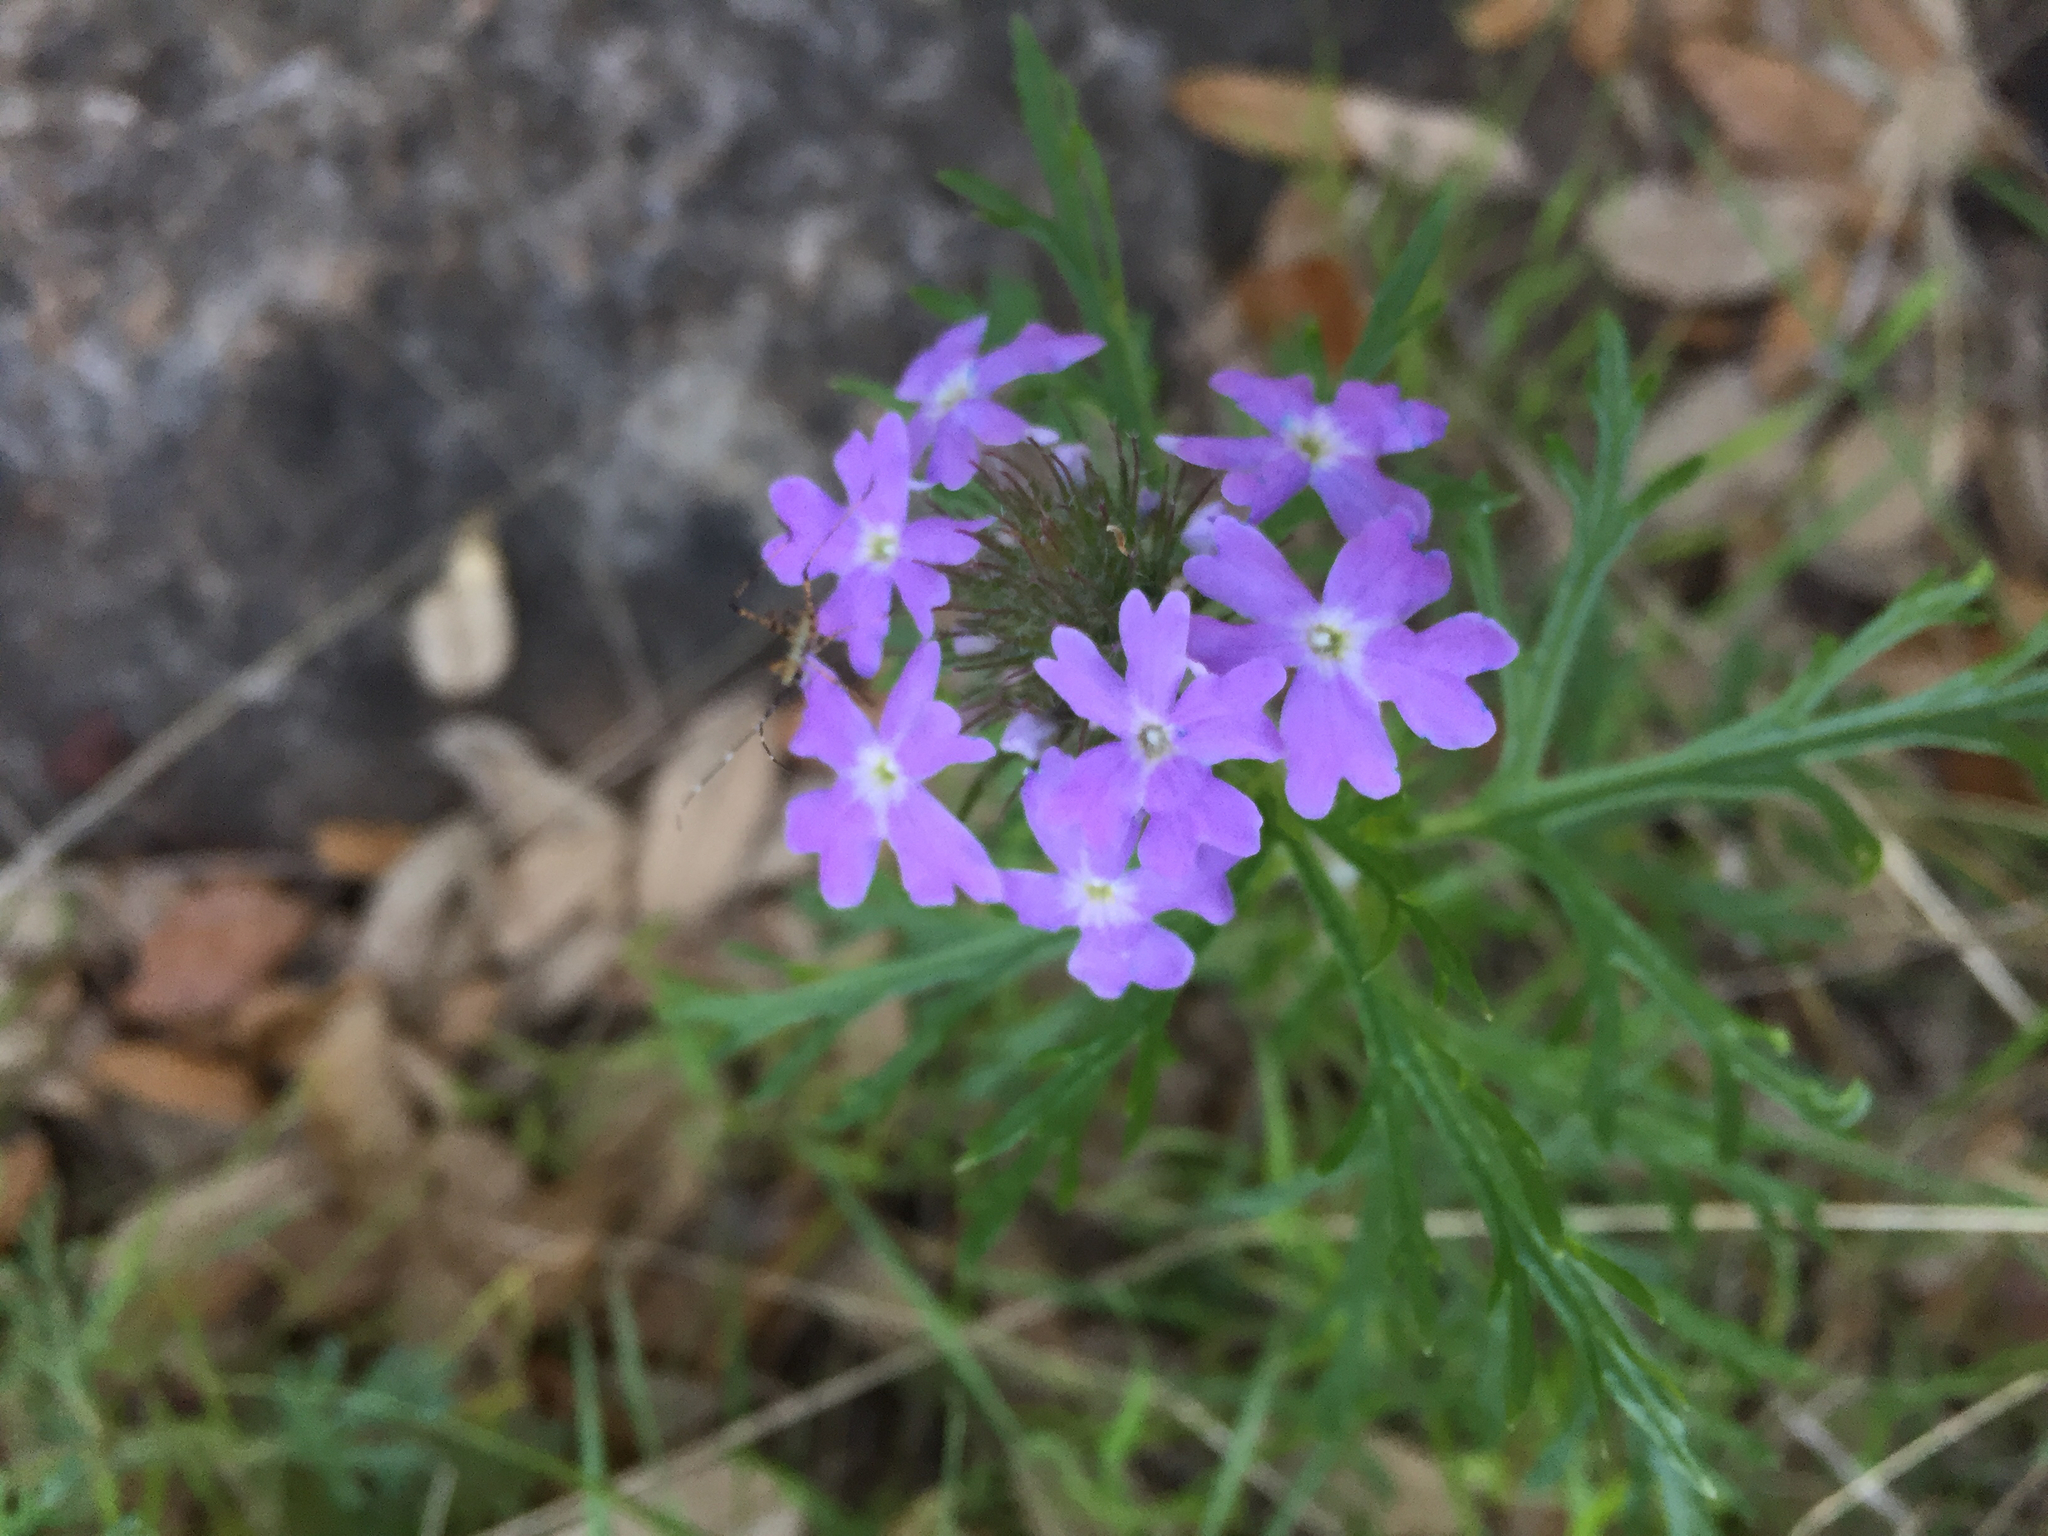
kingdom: Plantae
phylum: Tracheophyta
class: Magnoliopsida
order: Lamiales
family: Verbenaceae
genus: Verbena
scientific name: Verbena bipinnatifida
